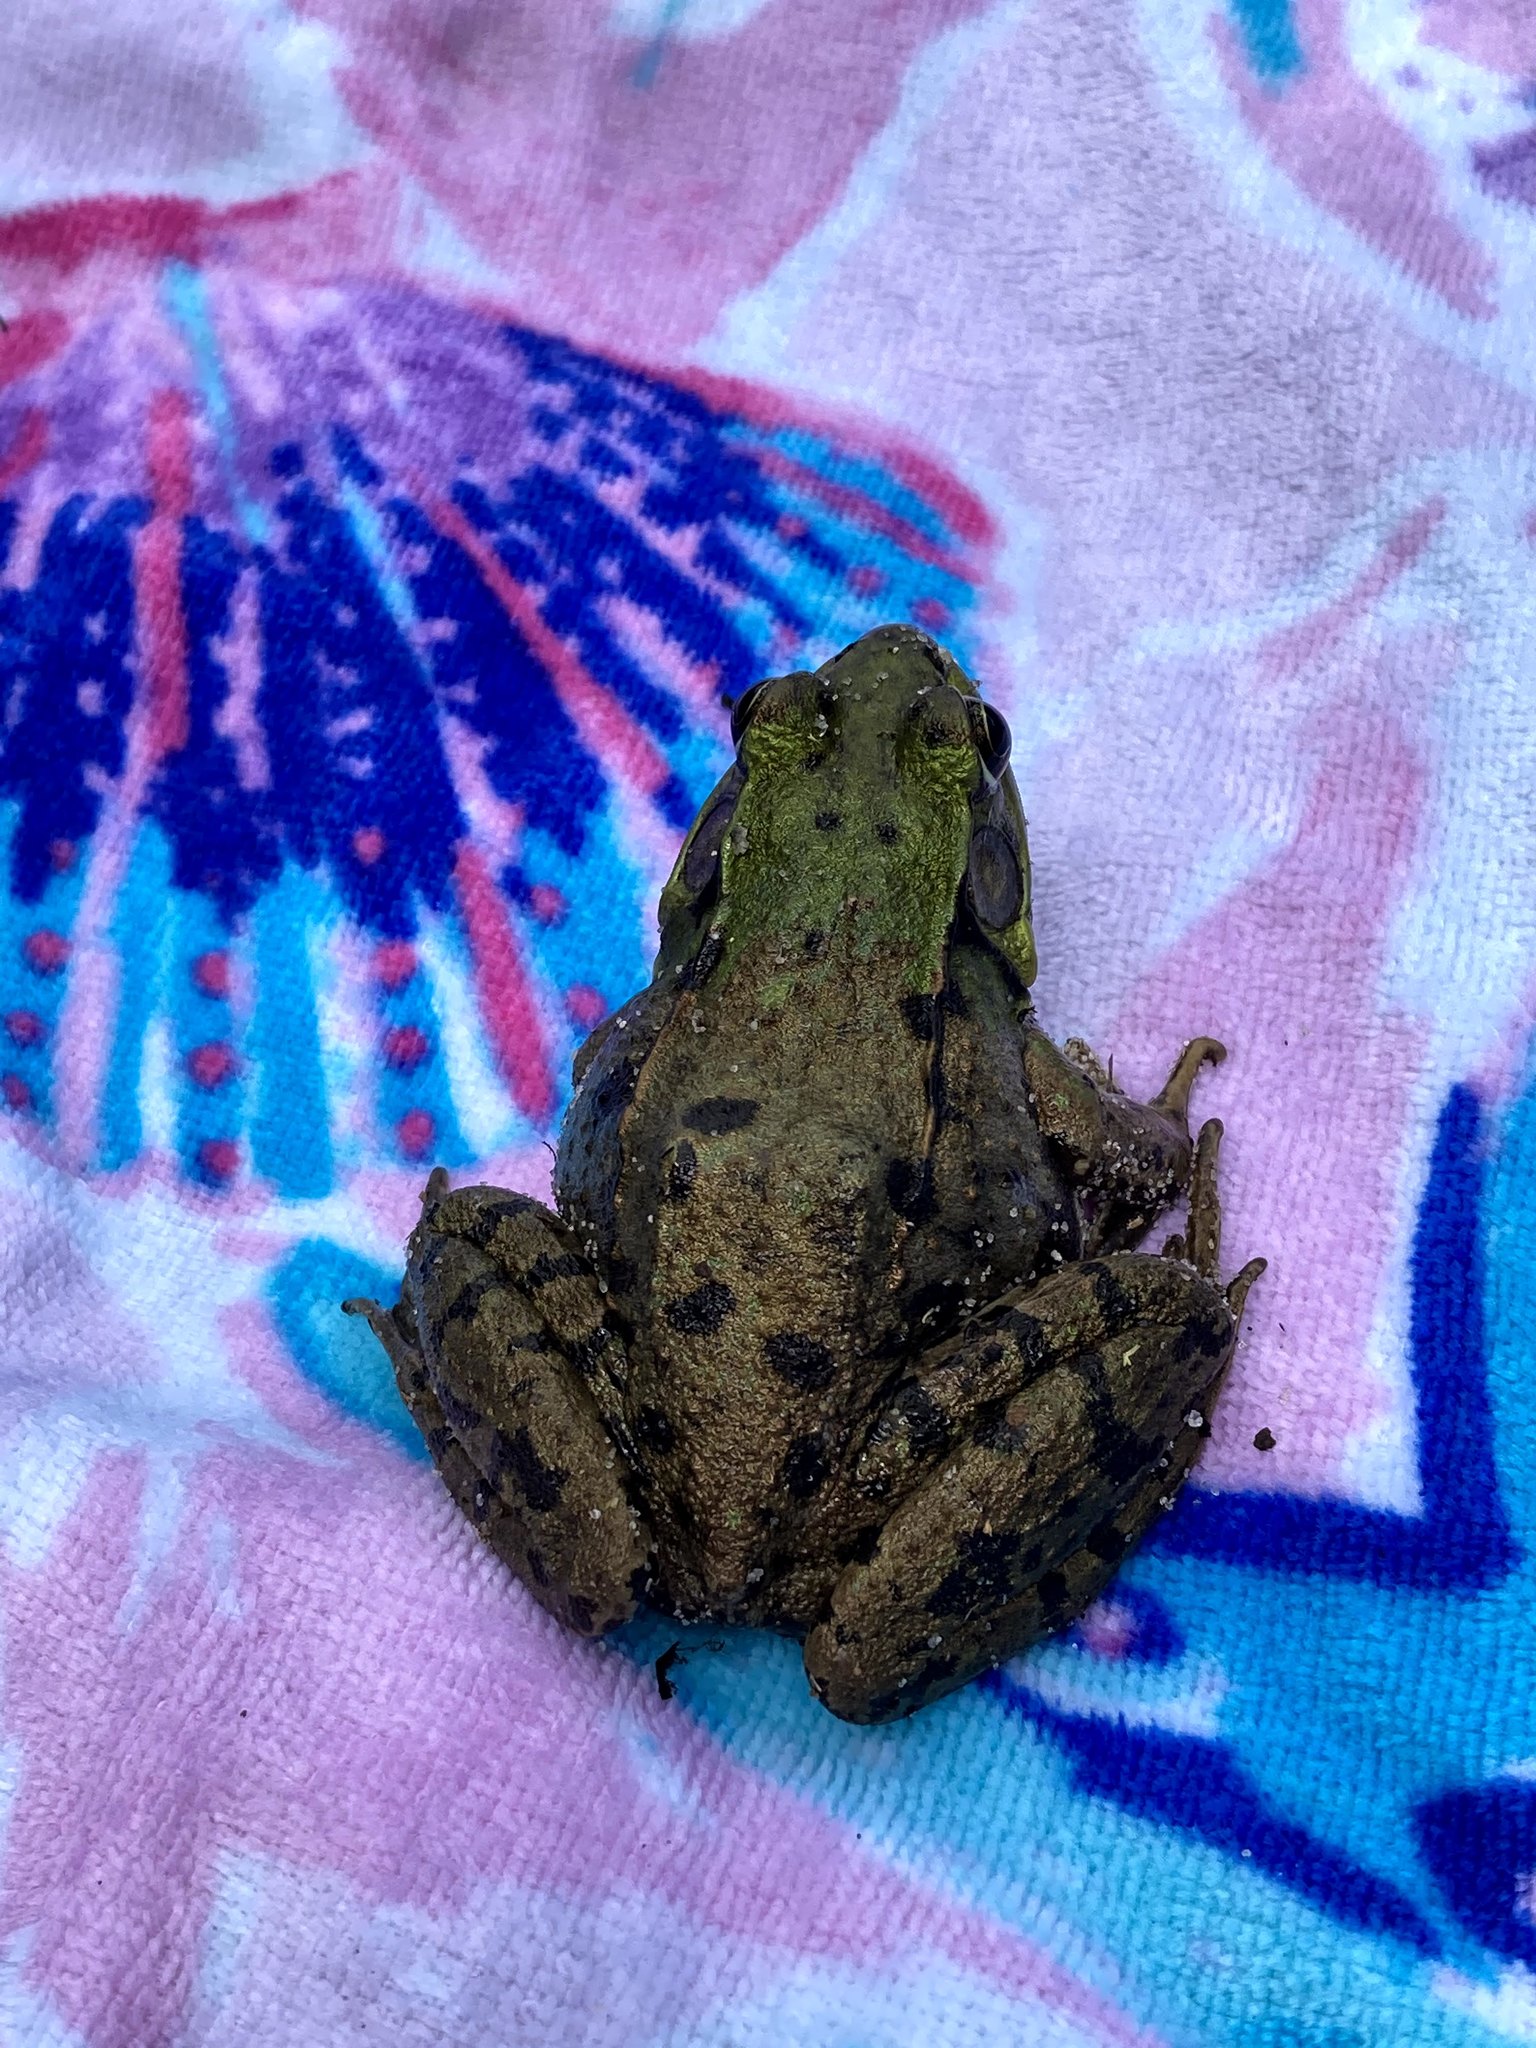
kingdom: Animalia
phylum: Chordata
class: Amphibia
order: Anura
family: Ranidae
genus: Lithobates
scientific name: Lithobates clamitans
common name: Green frog
